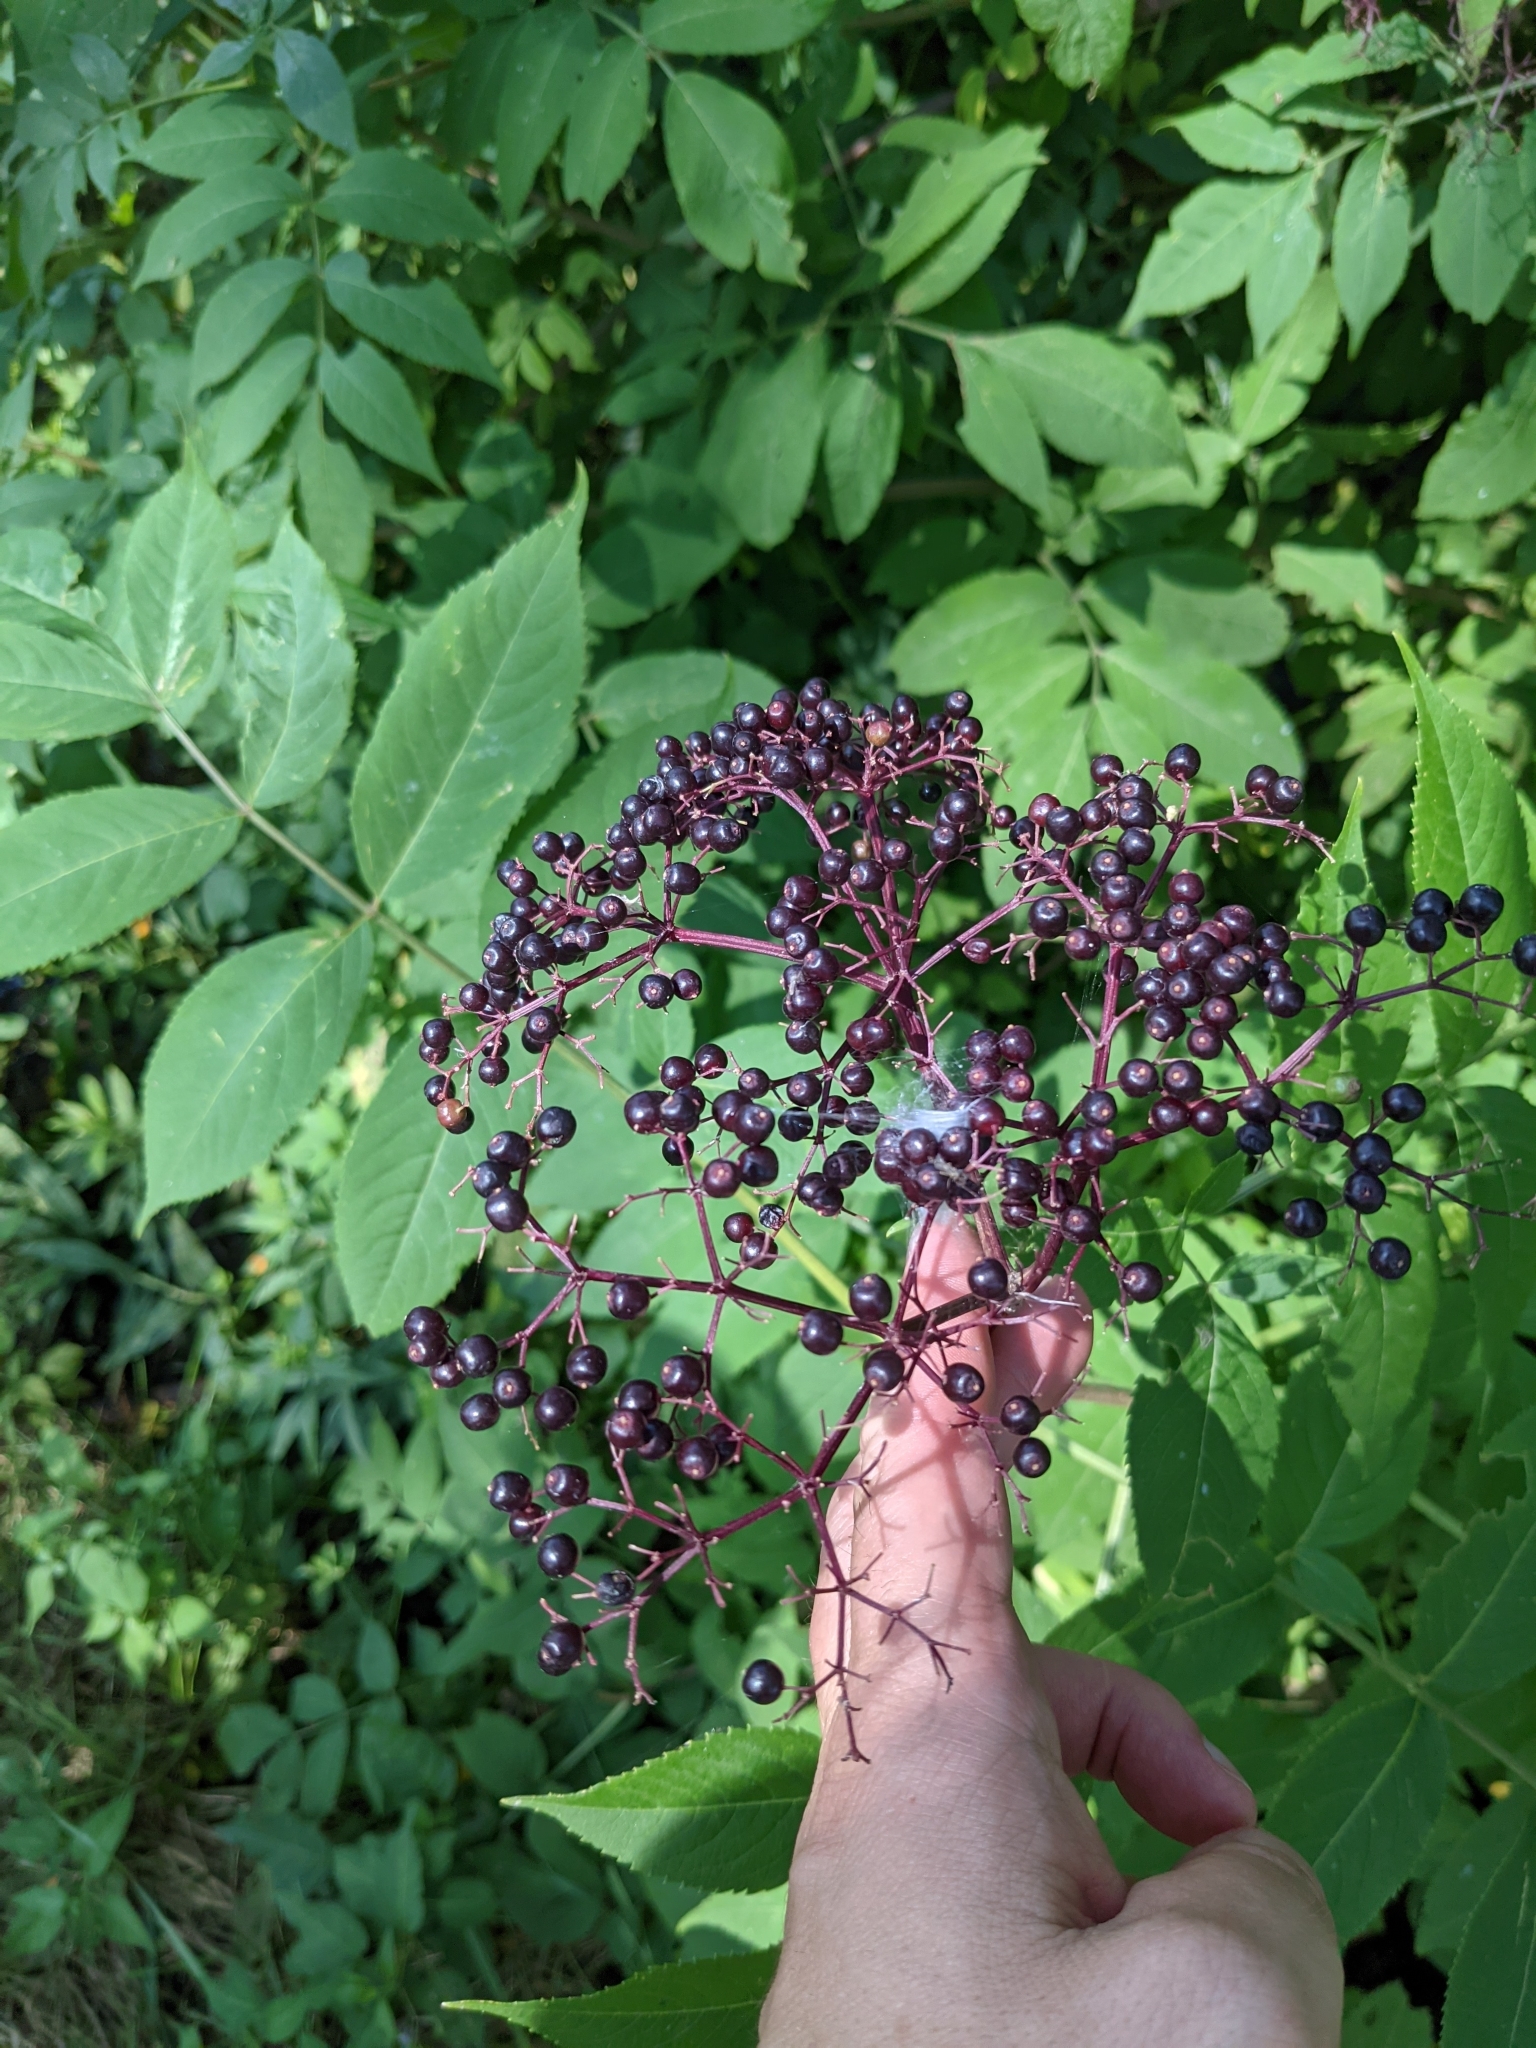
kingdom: Plantae
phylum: Tracheophyta
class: Magnoliopsida
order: Dipsacales
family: Viburnaceae
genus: Sambucus
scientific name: Sambucus canadensis
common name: American elder
